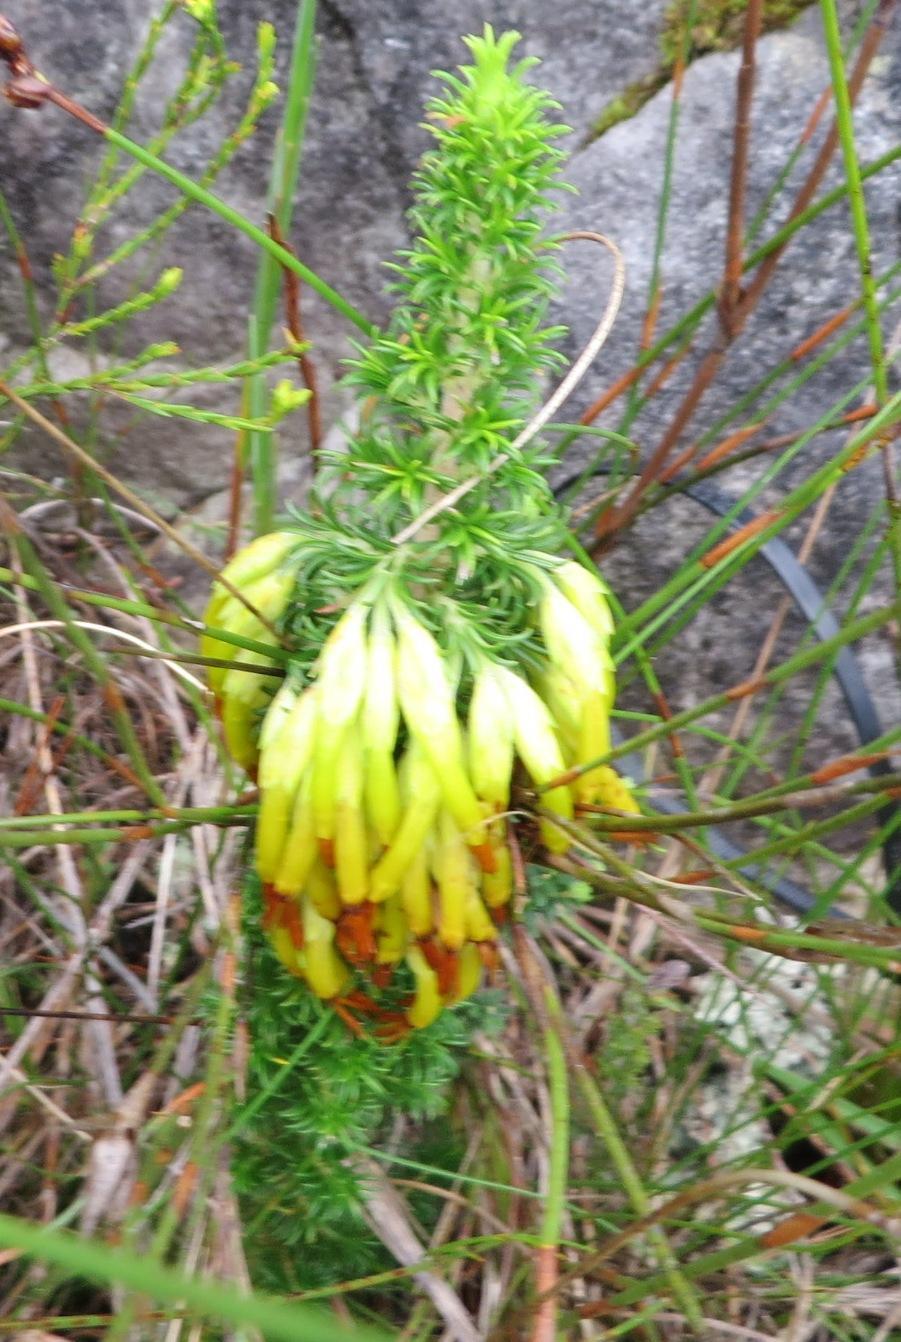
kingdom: Plantae
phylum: Tracheophyta
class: Magnoliopsida
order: Ericales
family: Ericaceae
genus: Erica
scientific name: Erica coccinea
